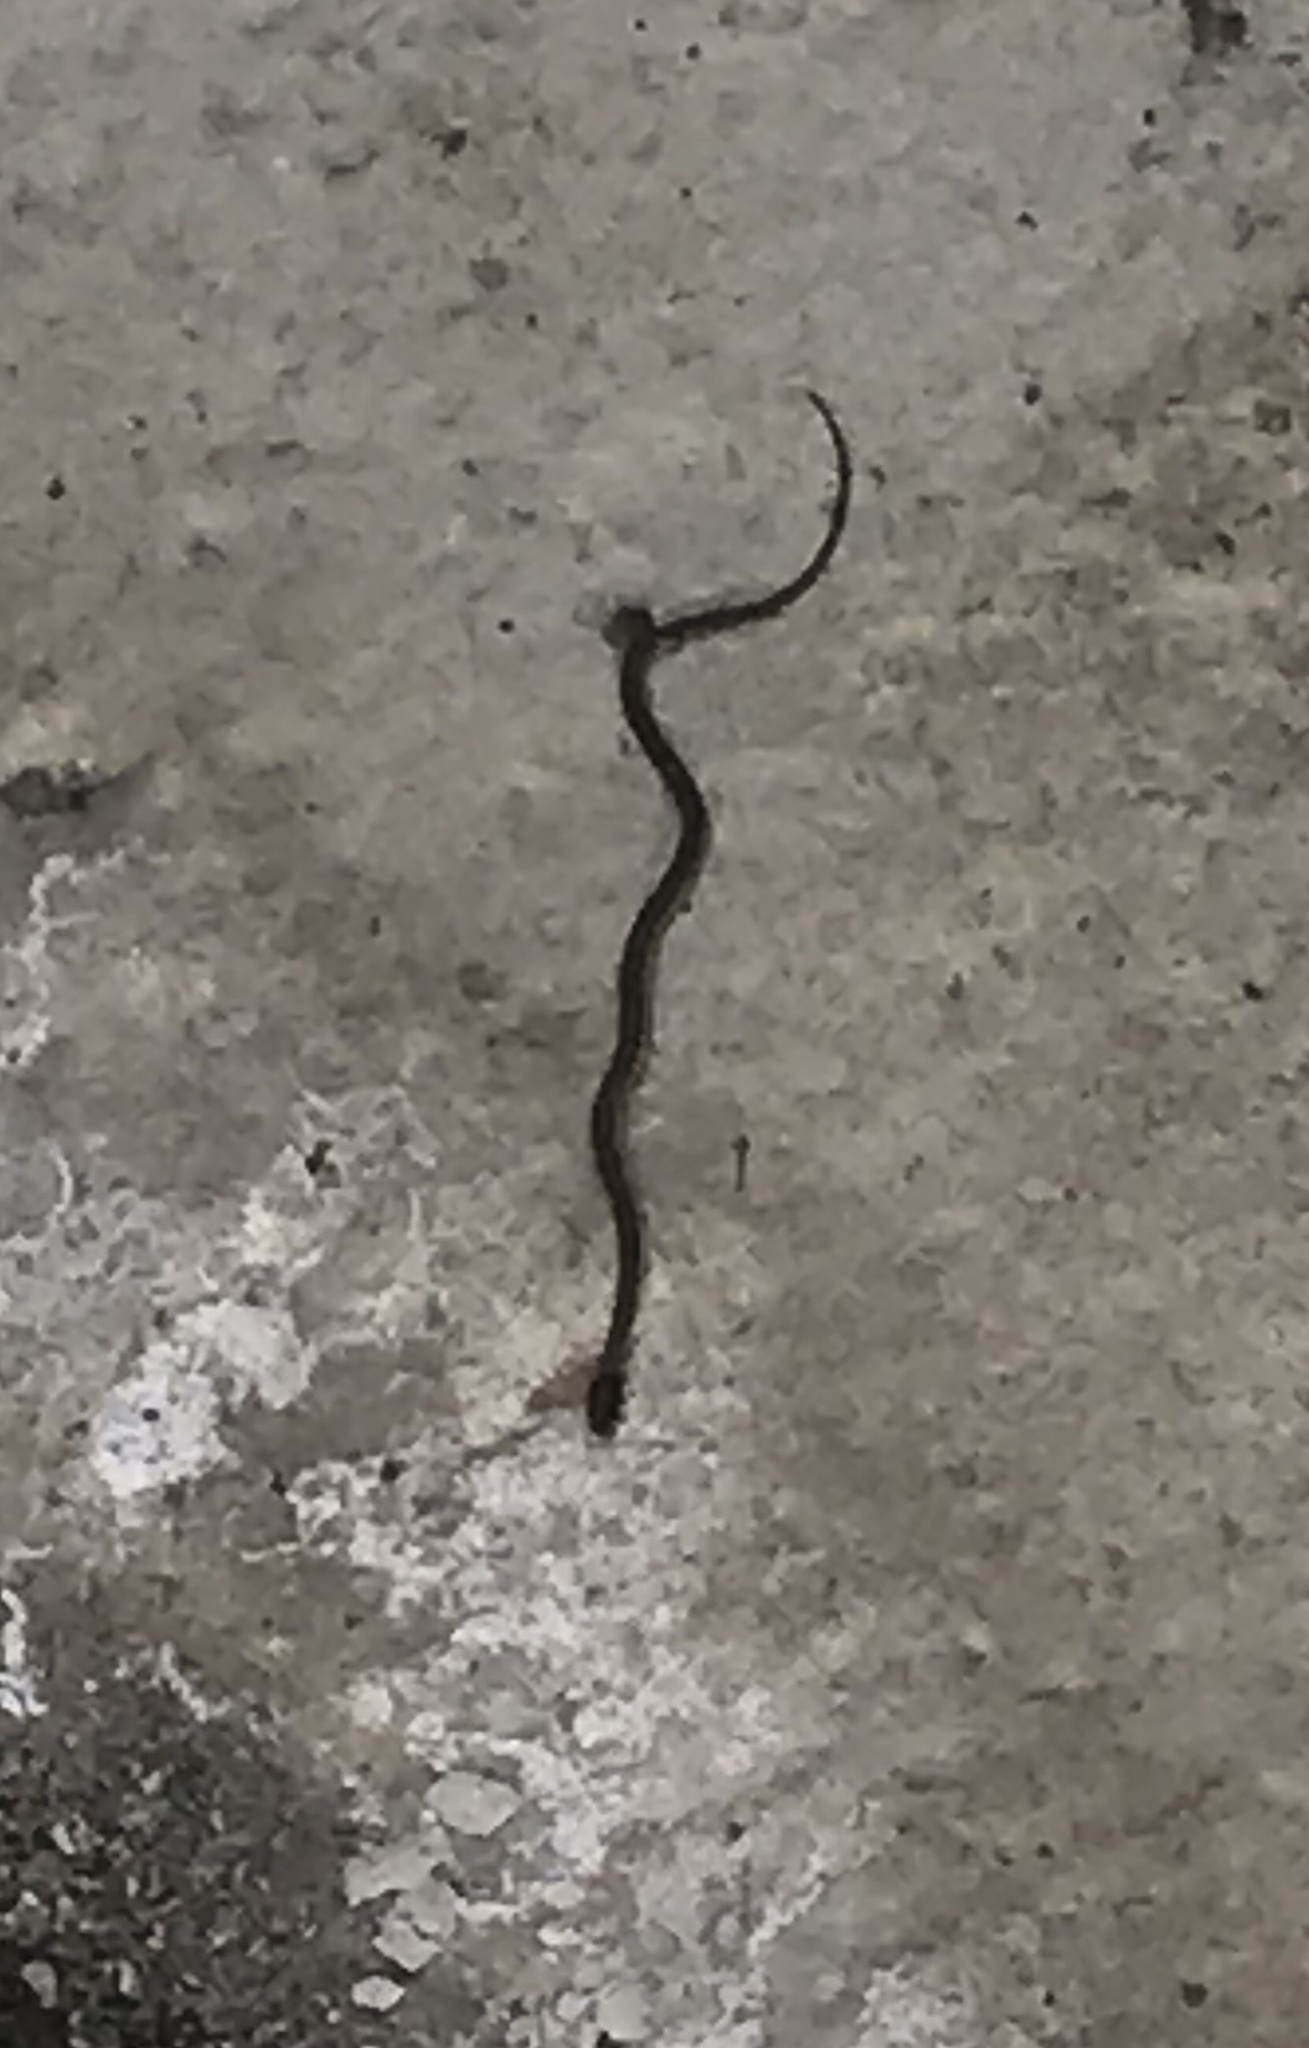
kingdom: Animalia
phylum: Chordata
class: Squamata
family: Colubridae
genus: Thamnophis
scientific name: Thamnophis hammondii
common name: Two-striped garter snake
